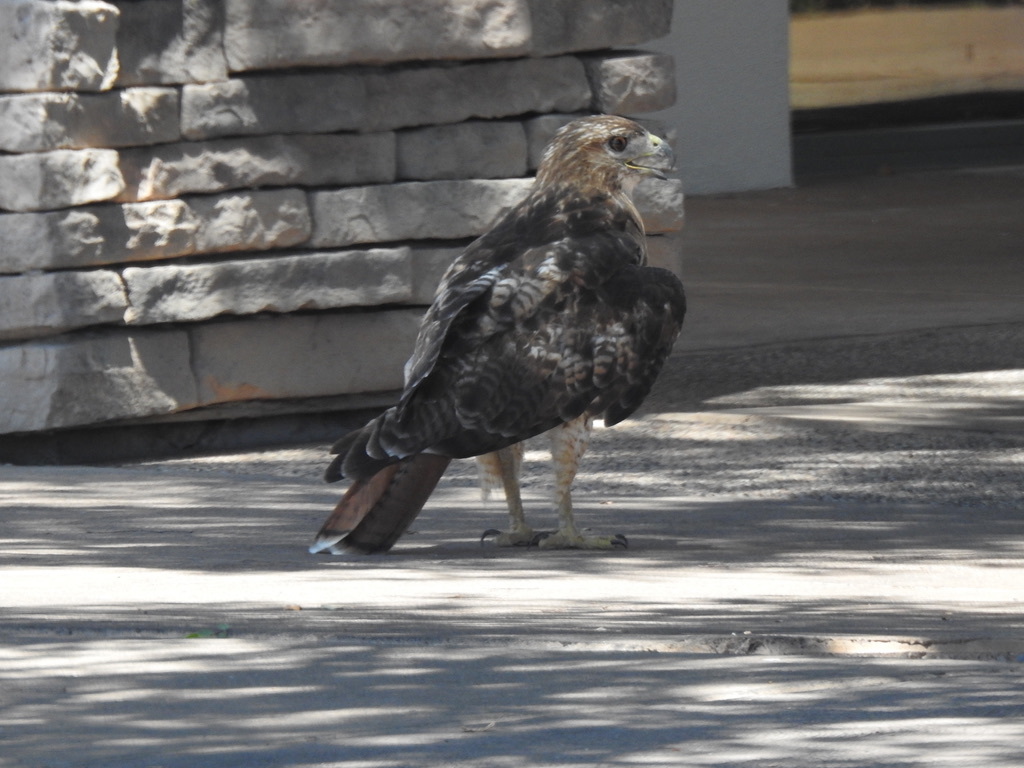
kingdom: Animalia
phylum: Chordata
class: Aves
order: Accipitriformes
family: Accipitridae
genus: Buteo
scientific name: Buteo jamaicensis
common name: Red-tailed hawk
